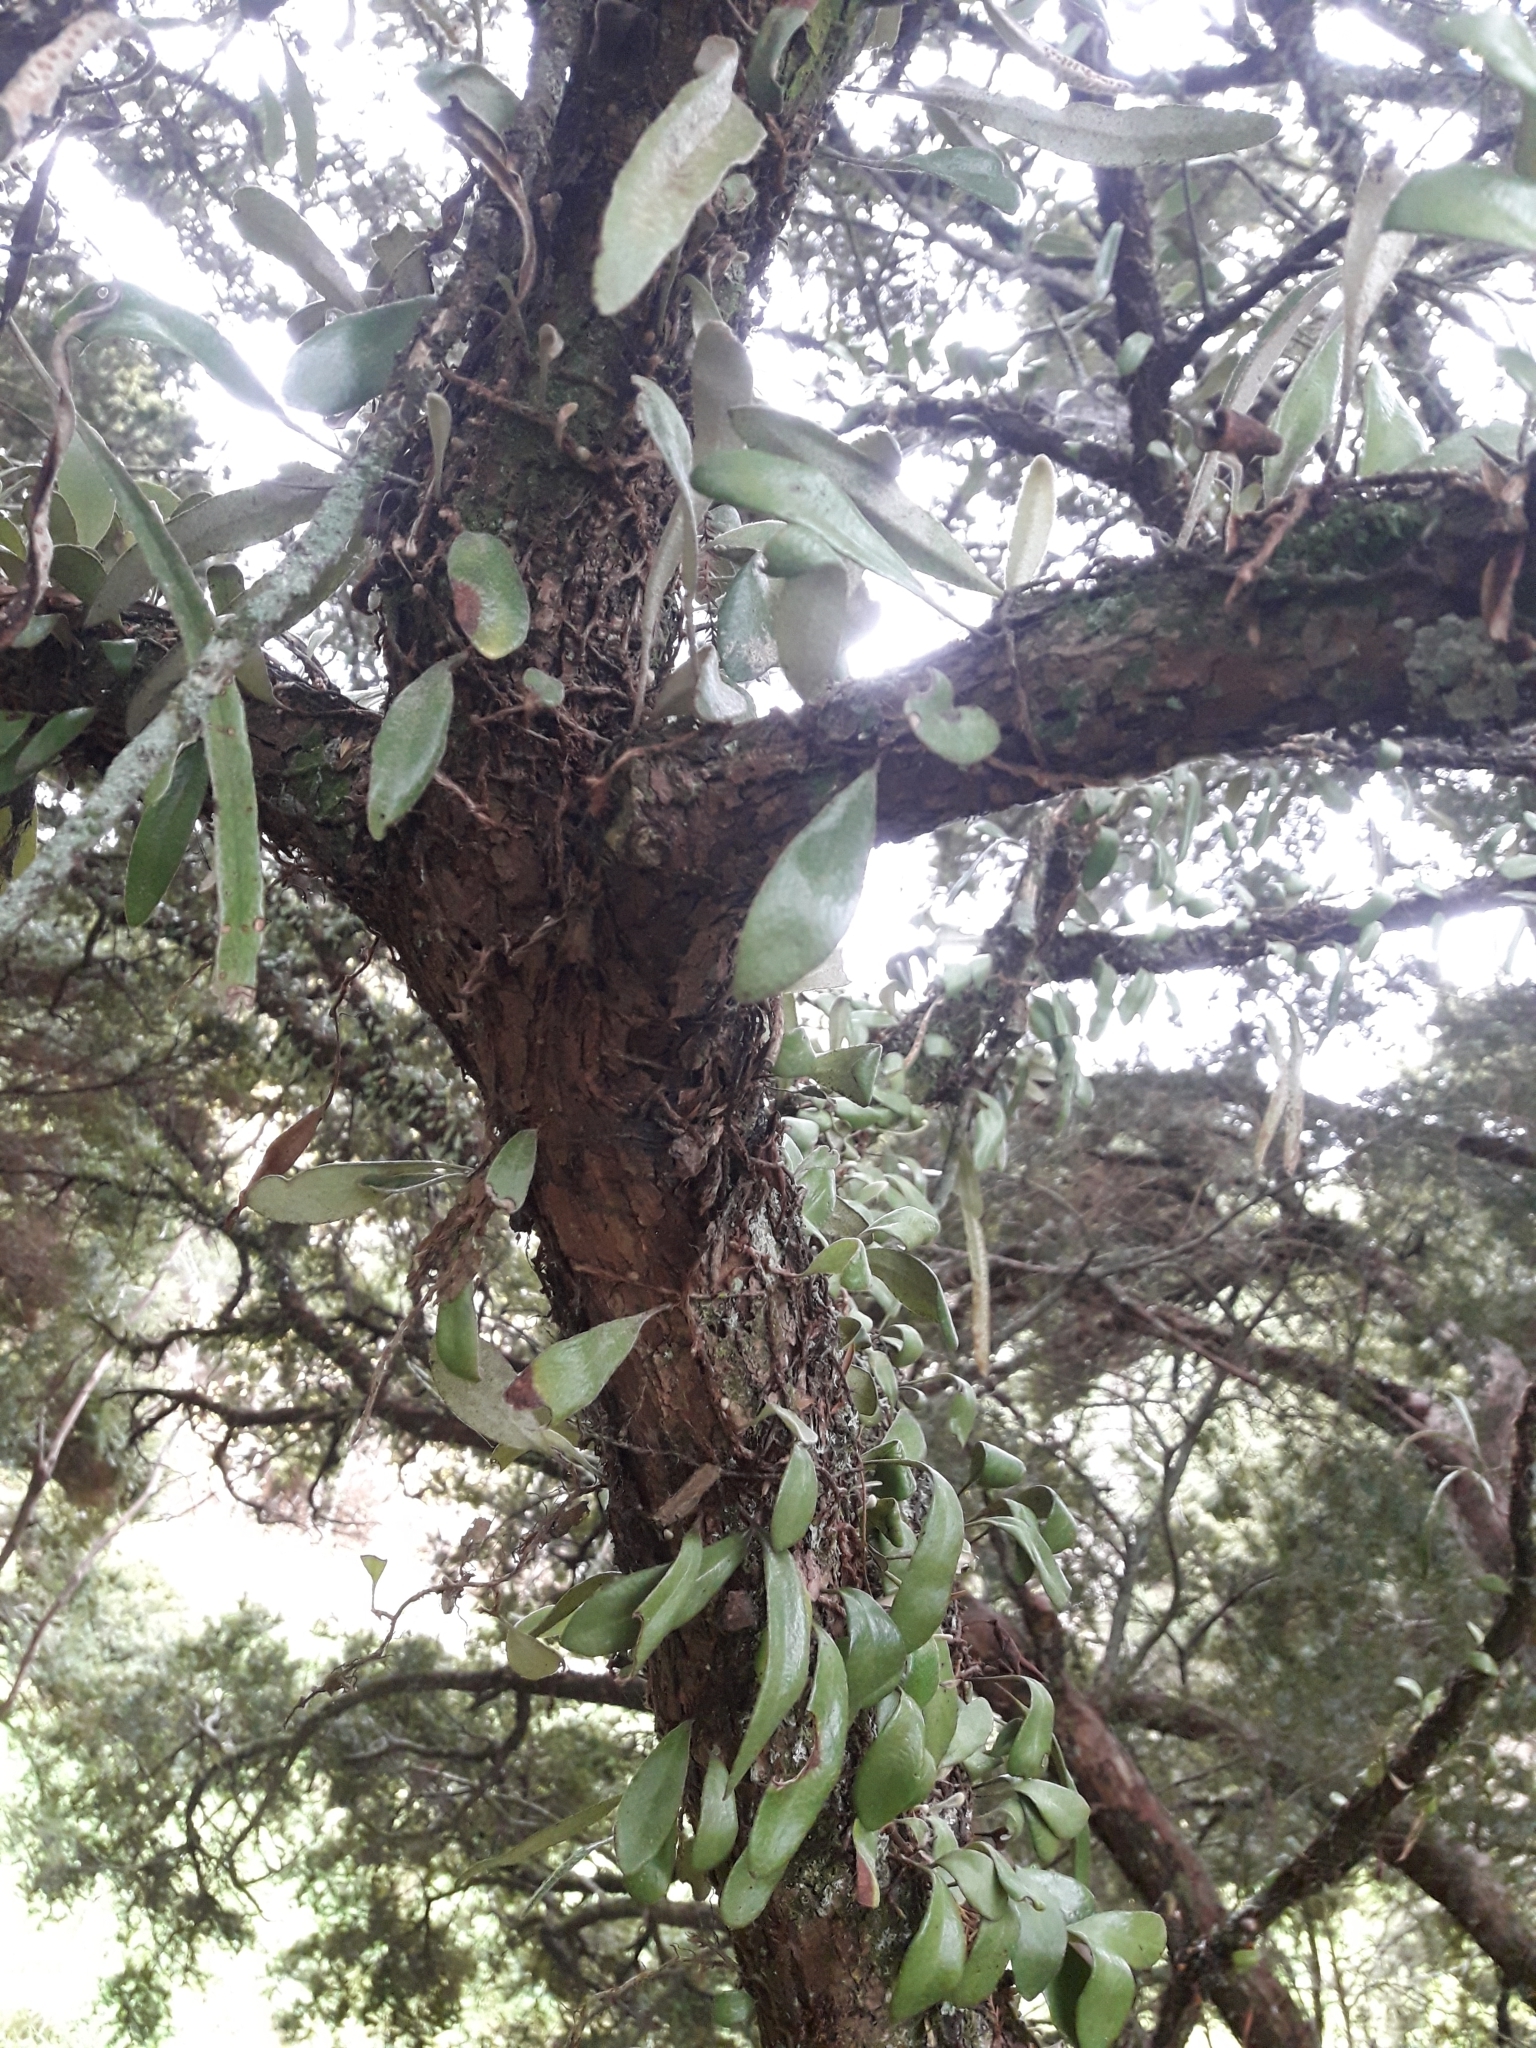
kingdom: Plantae
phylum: Tracheophyta
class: Polypodiopsida
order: Polypodiales
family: Polypodiaceae
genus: Pyrrosia
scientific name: Pyrrosia eleagnifolia
